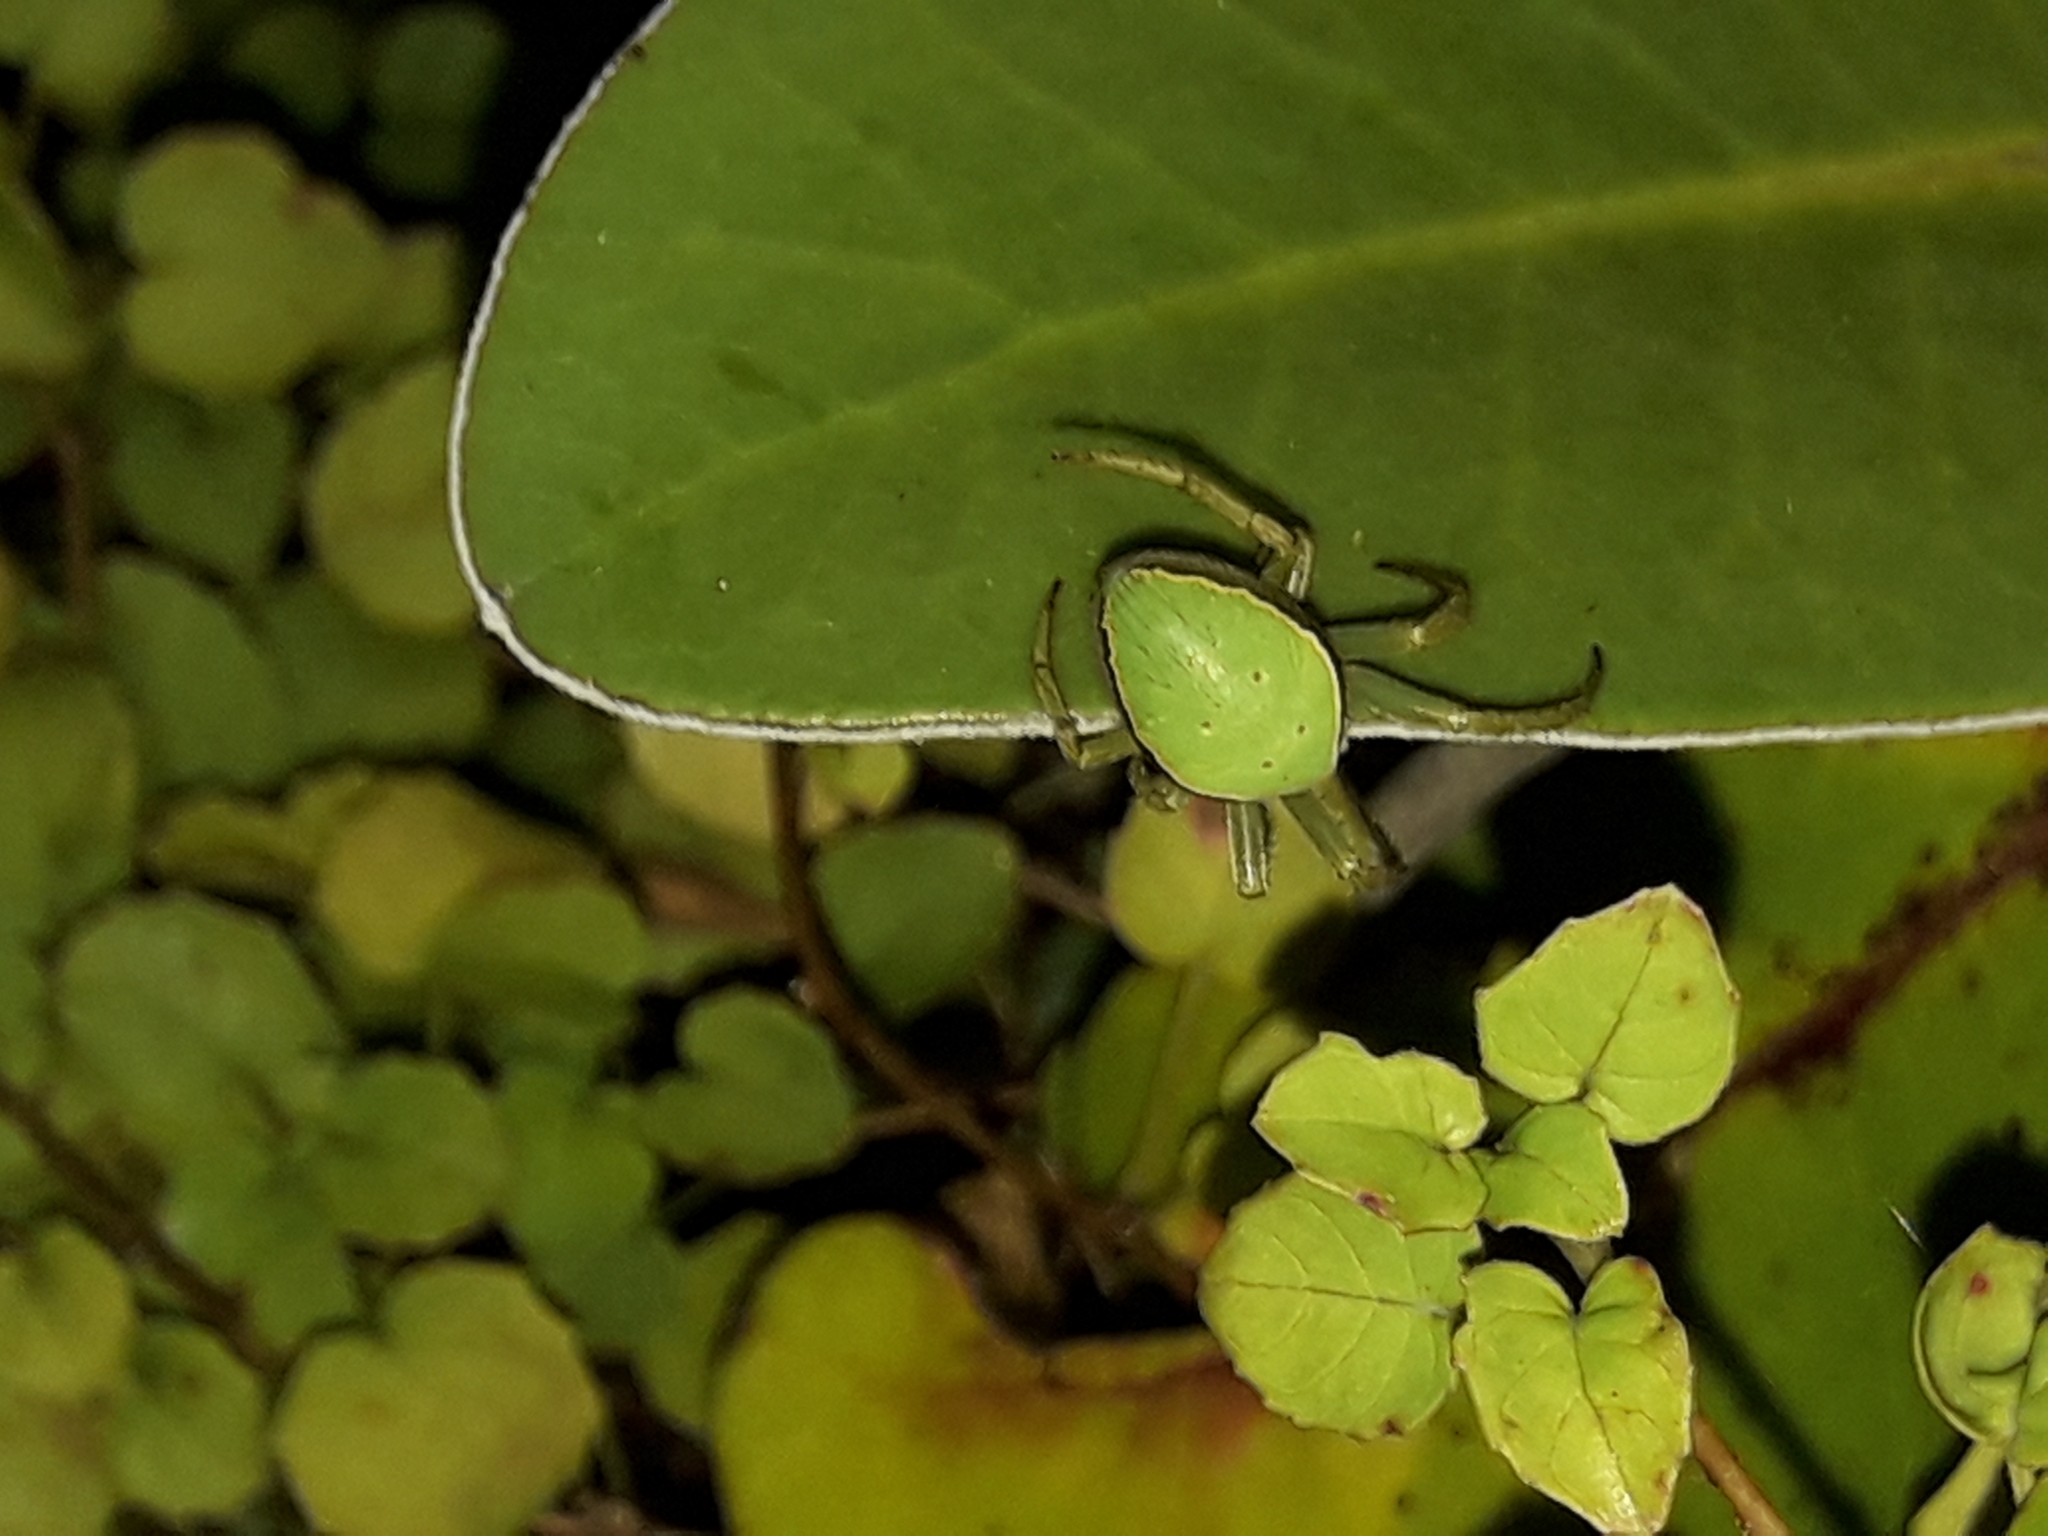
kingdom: Animalia
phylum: Arthropoda
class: Arachnida
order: Araneae
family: Araneidae
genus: Colaranea
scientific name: Colaranea viriditas
